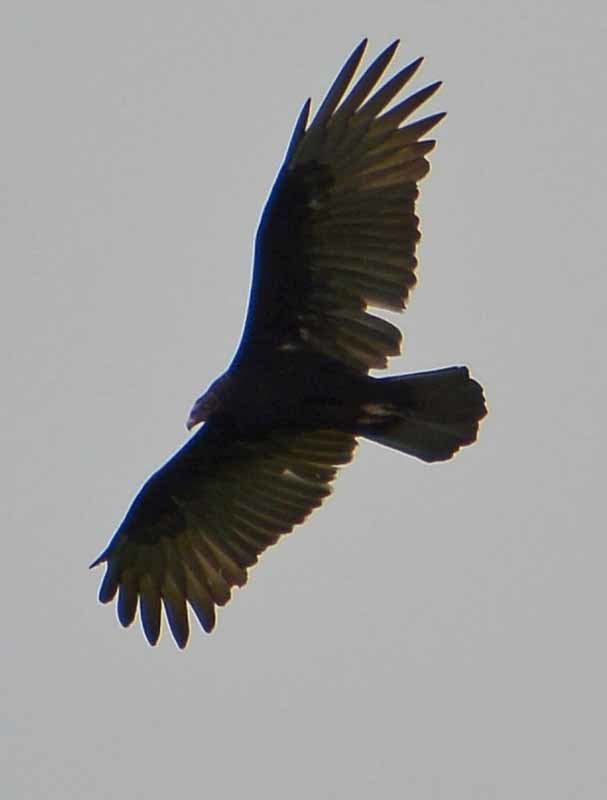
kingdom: Animalia
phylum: Chordata
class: Aves
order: Accipitriformes
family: Cathartidae
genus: Cathartes
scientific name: Cathartes aura
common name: Turkey vulture
